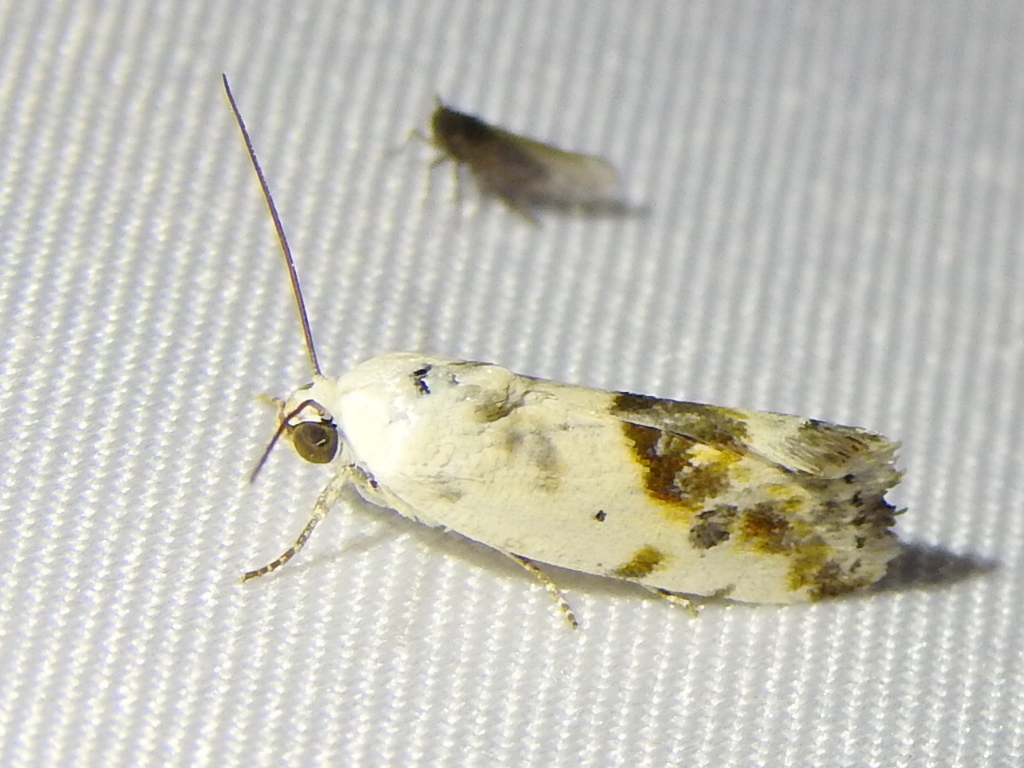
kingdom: Animalia
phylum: Arthropoda
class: Insecta
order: Lepidoptera
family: Noctuidae
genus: Acontia
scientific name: Acontia candefacta
